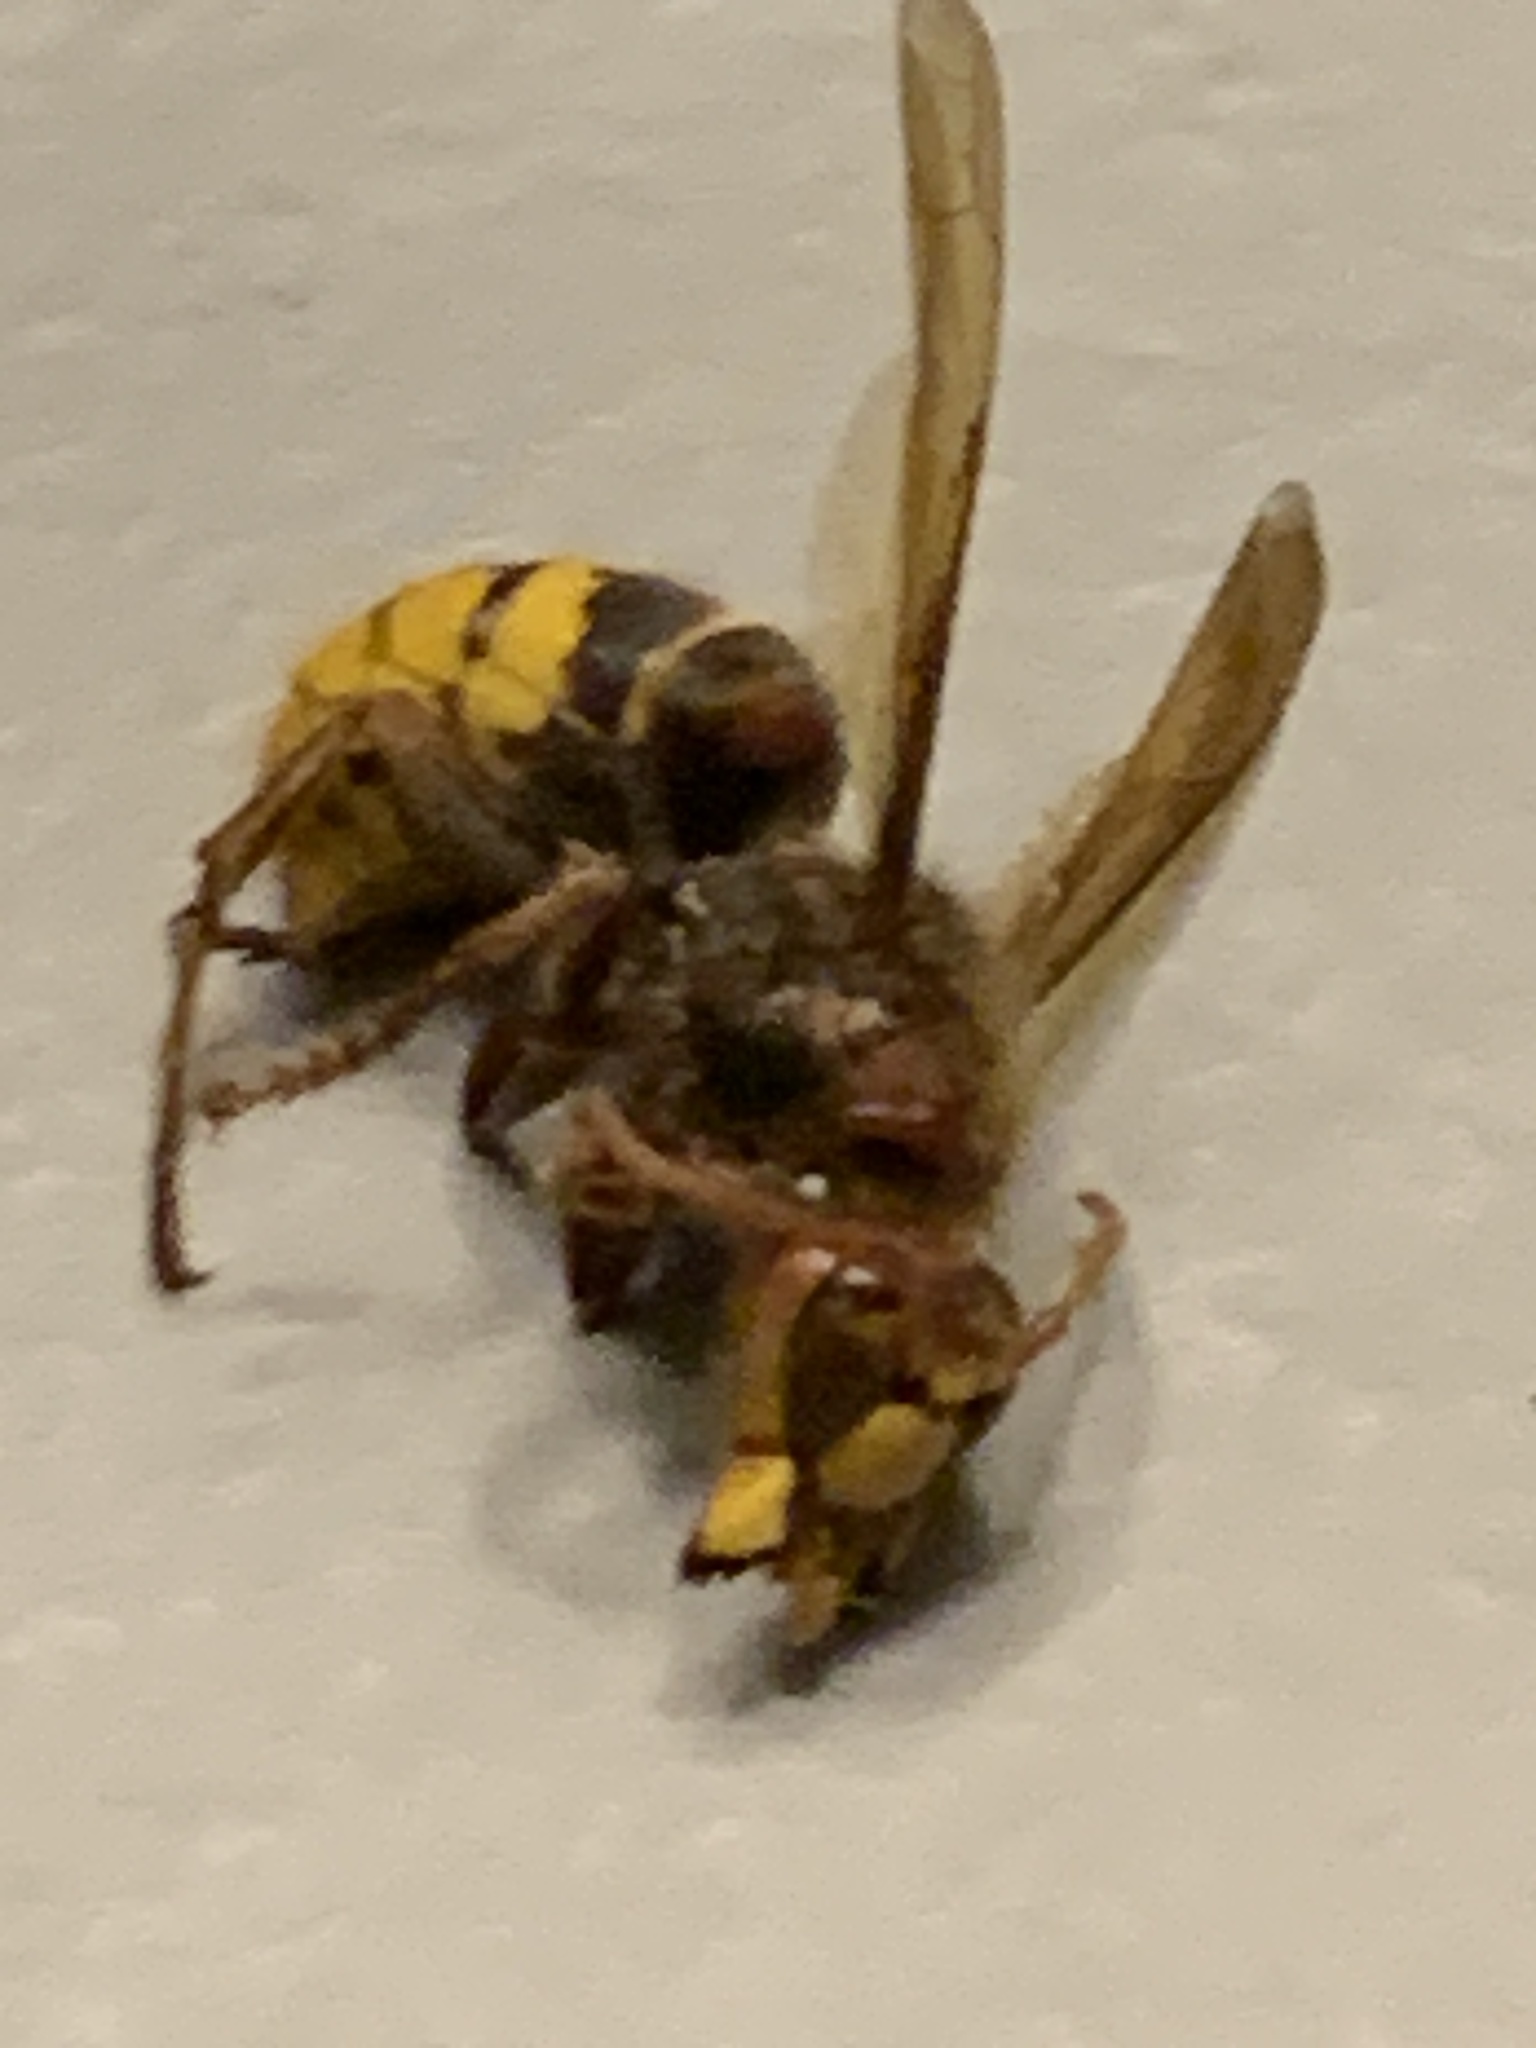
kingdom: Animalia
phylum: Arthropoda
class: Insecta
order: Hymenoptera
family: Vespidae
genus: Vespa
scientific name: Vespa crabro
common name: Hornet
